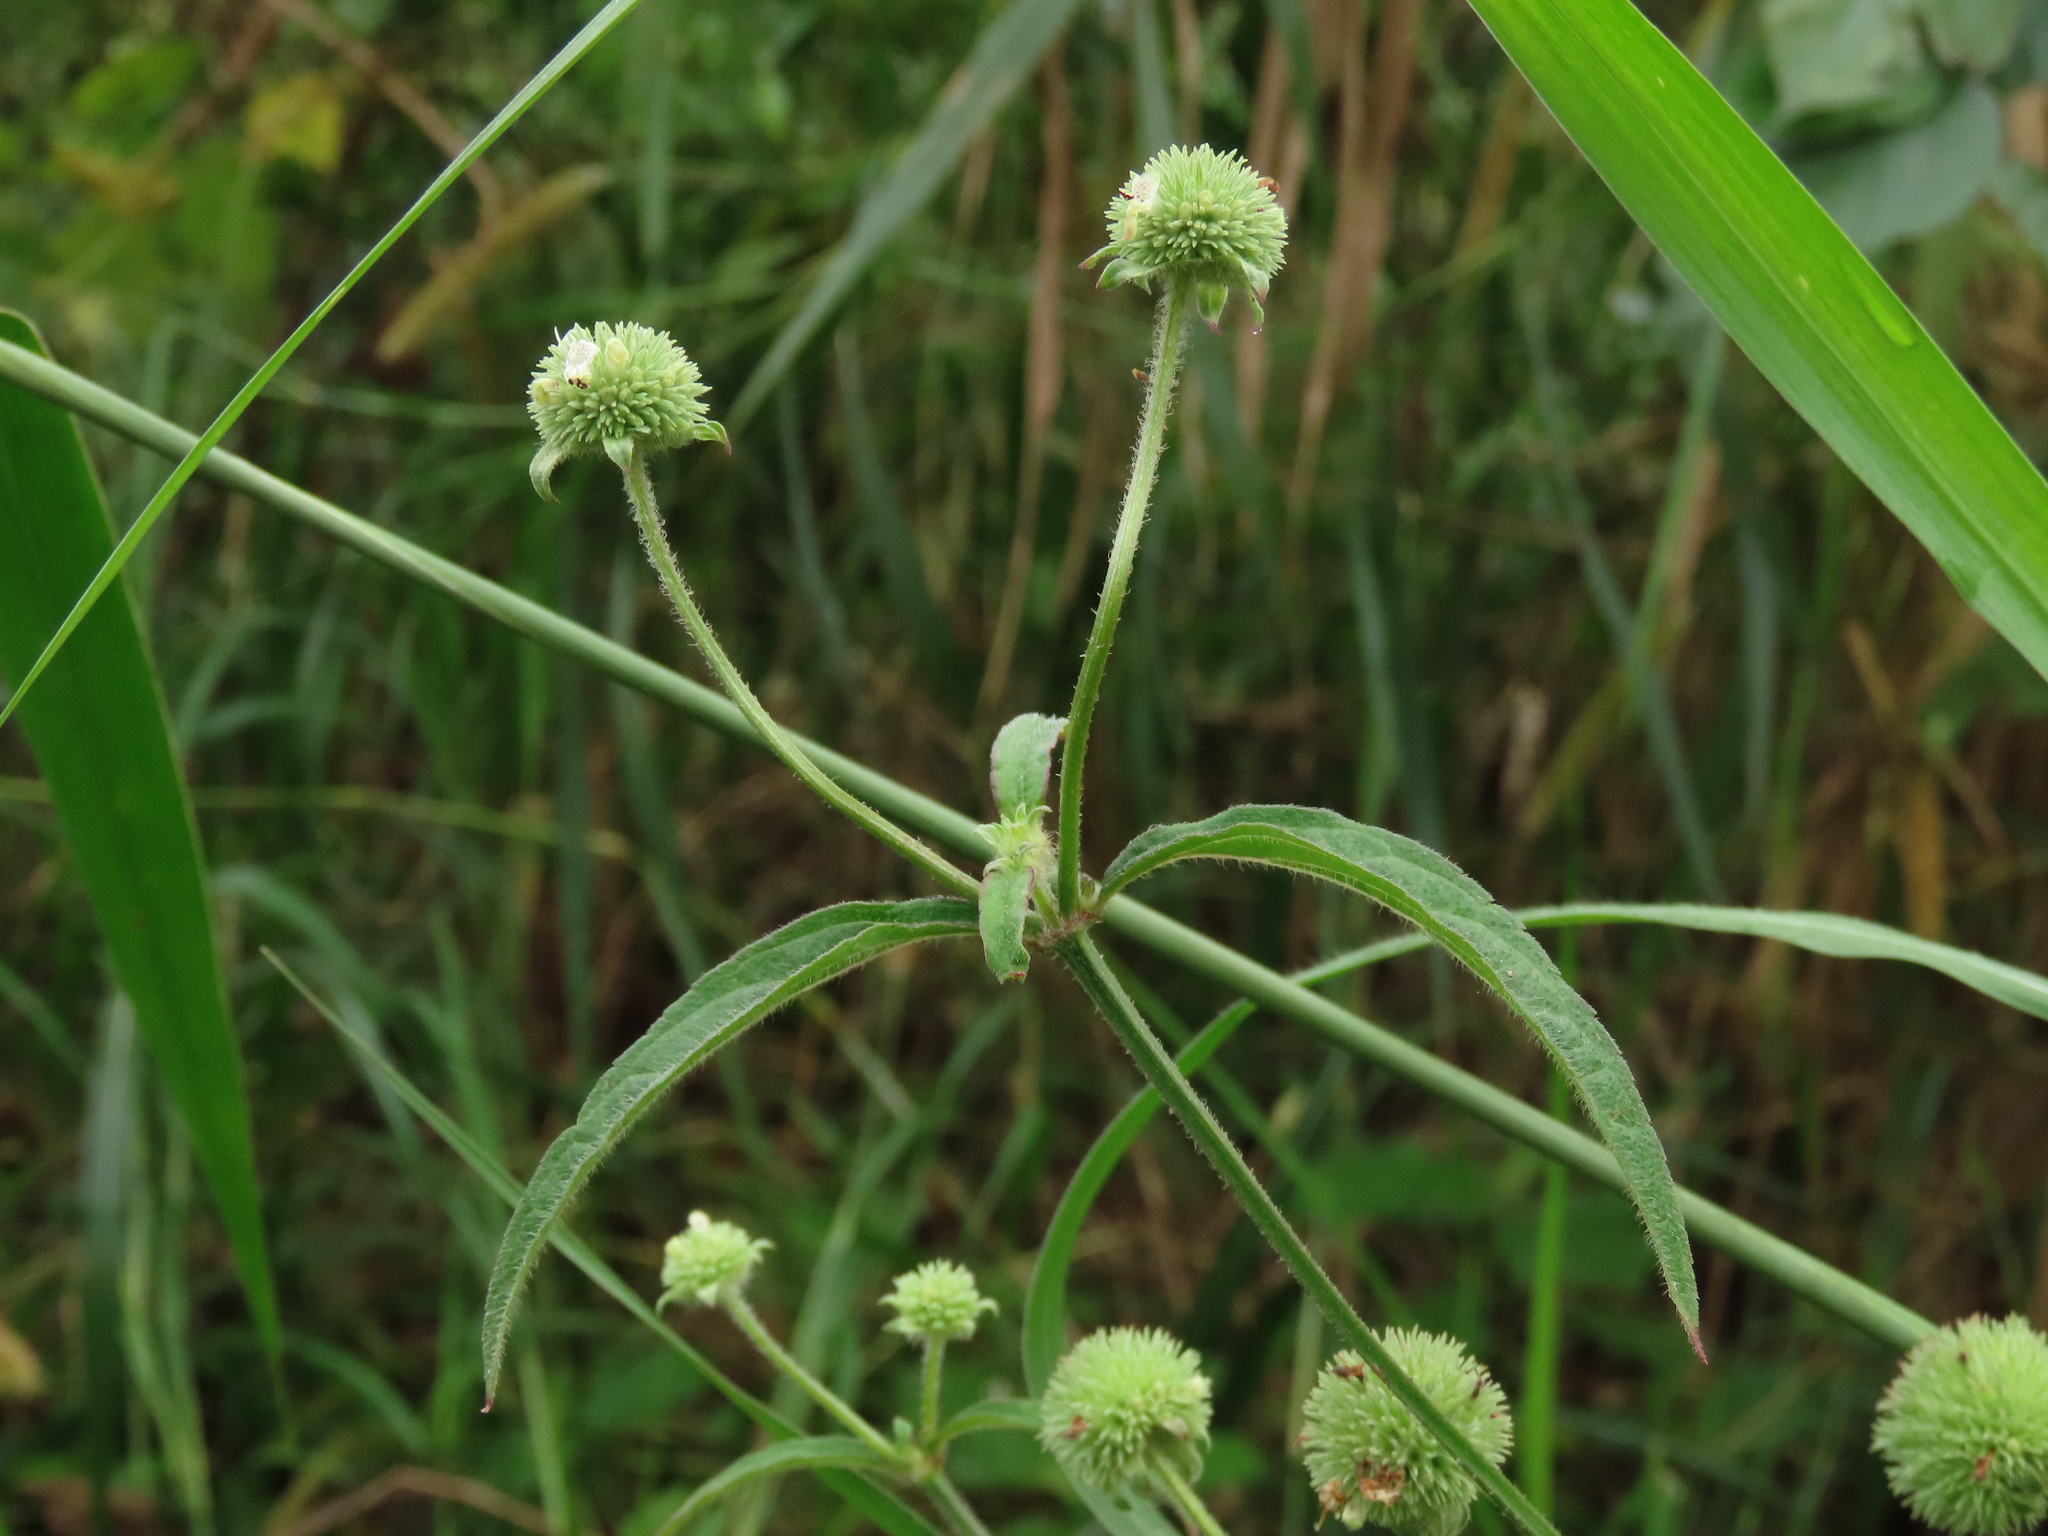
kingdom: Plantae
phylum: Tracheophyta
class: Magnoliopsida
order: Lamiales
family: Lamiaceae
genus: Hyptis
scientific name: Hyptis capitata
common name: False ironwort
